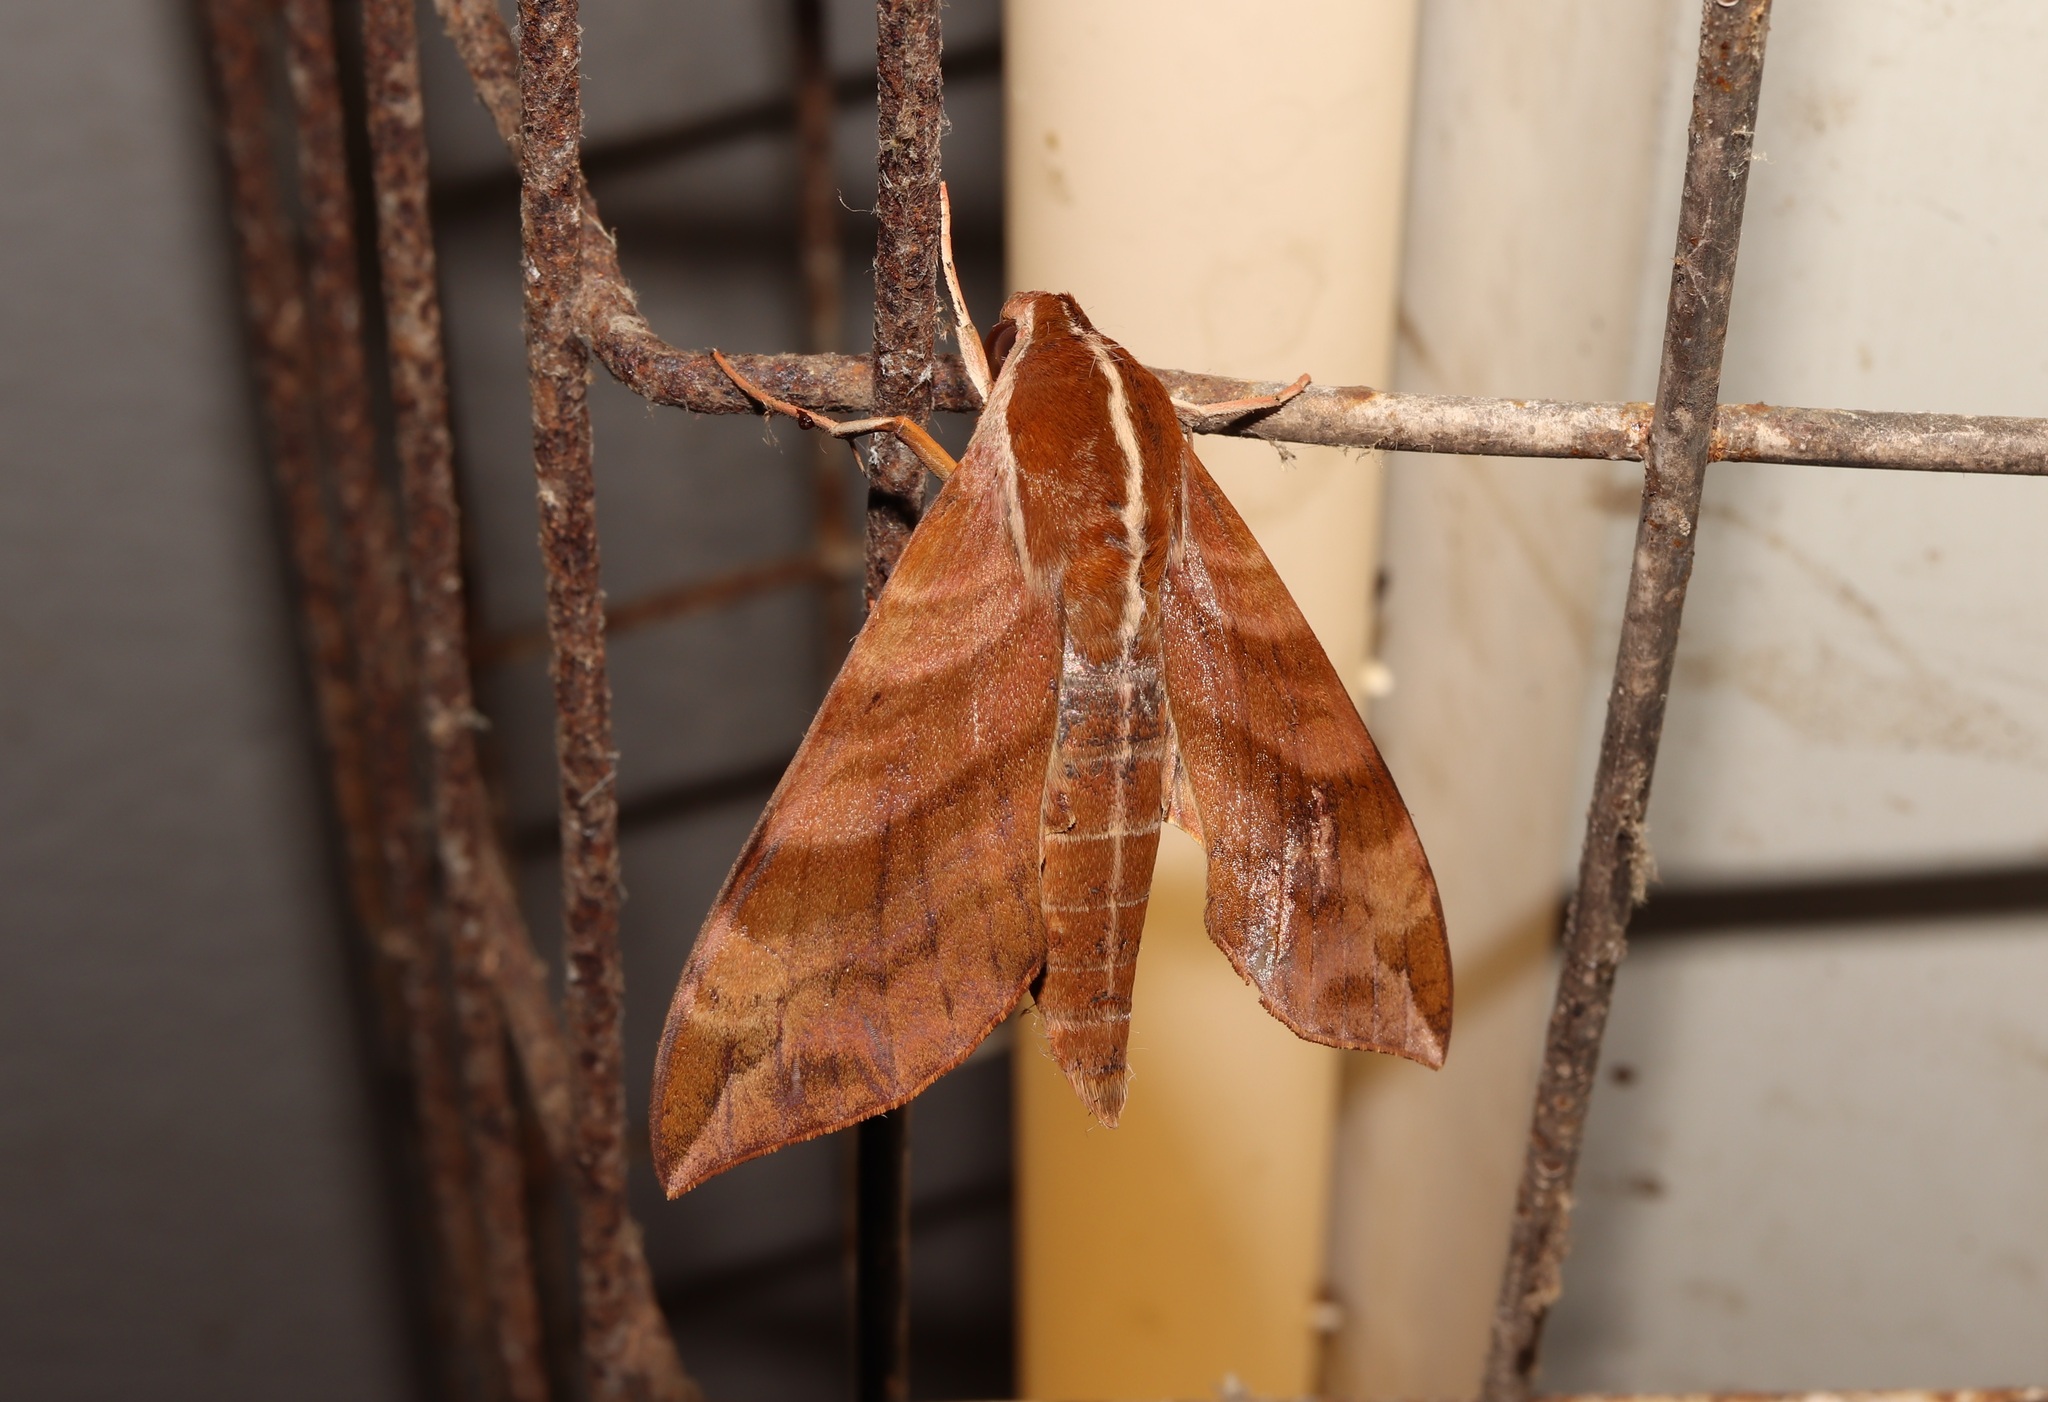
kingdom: Animalia
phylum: Arthropoda
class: Insecta
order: Lepidoptera
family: Sphingidae
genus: Ampelophaga
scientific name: Ampelophaga rubiginosa
